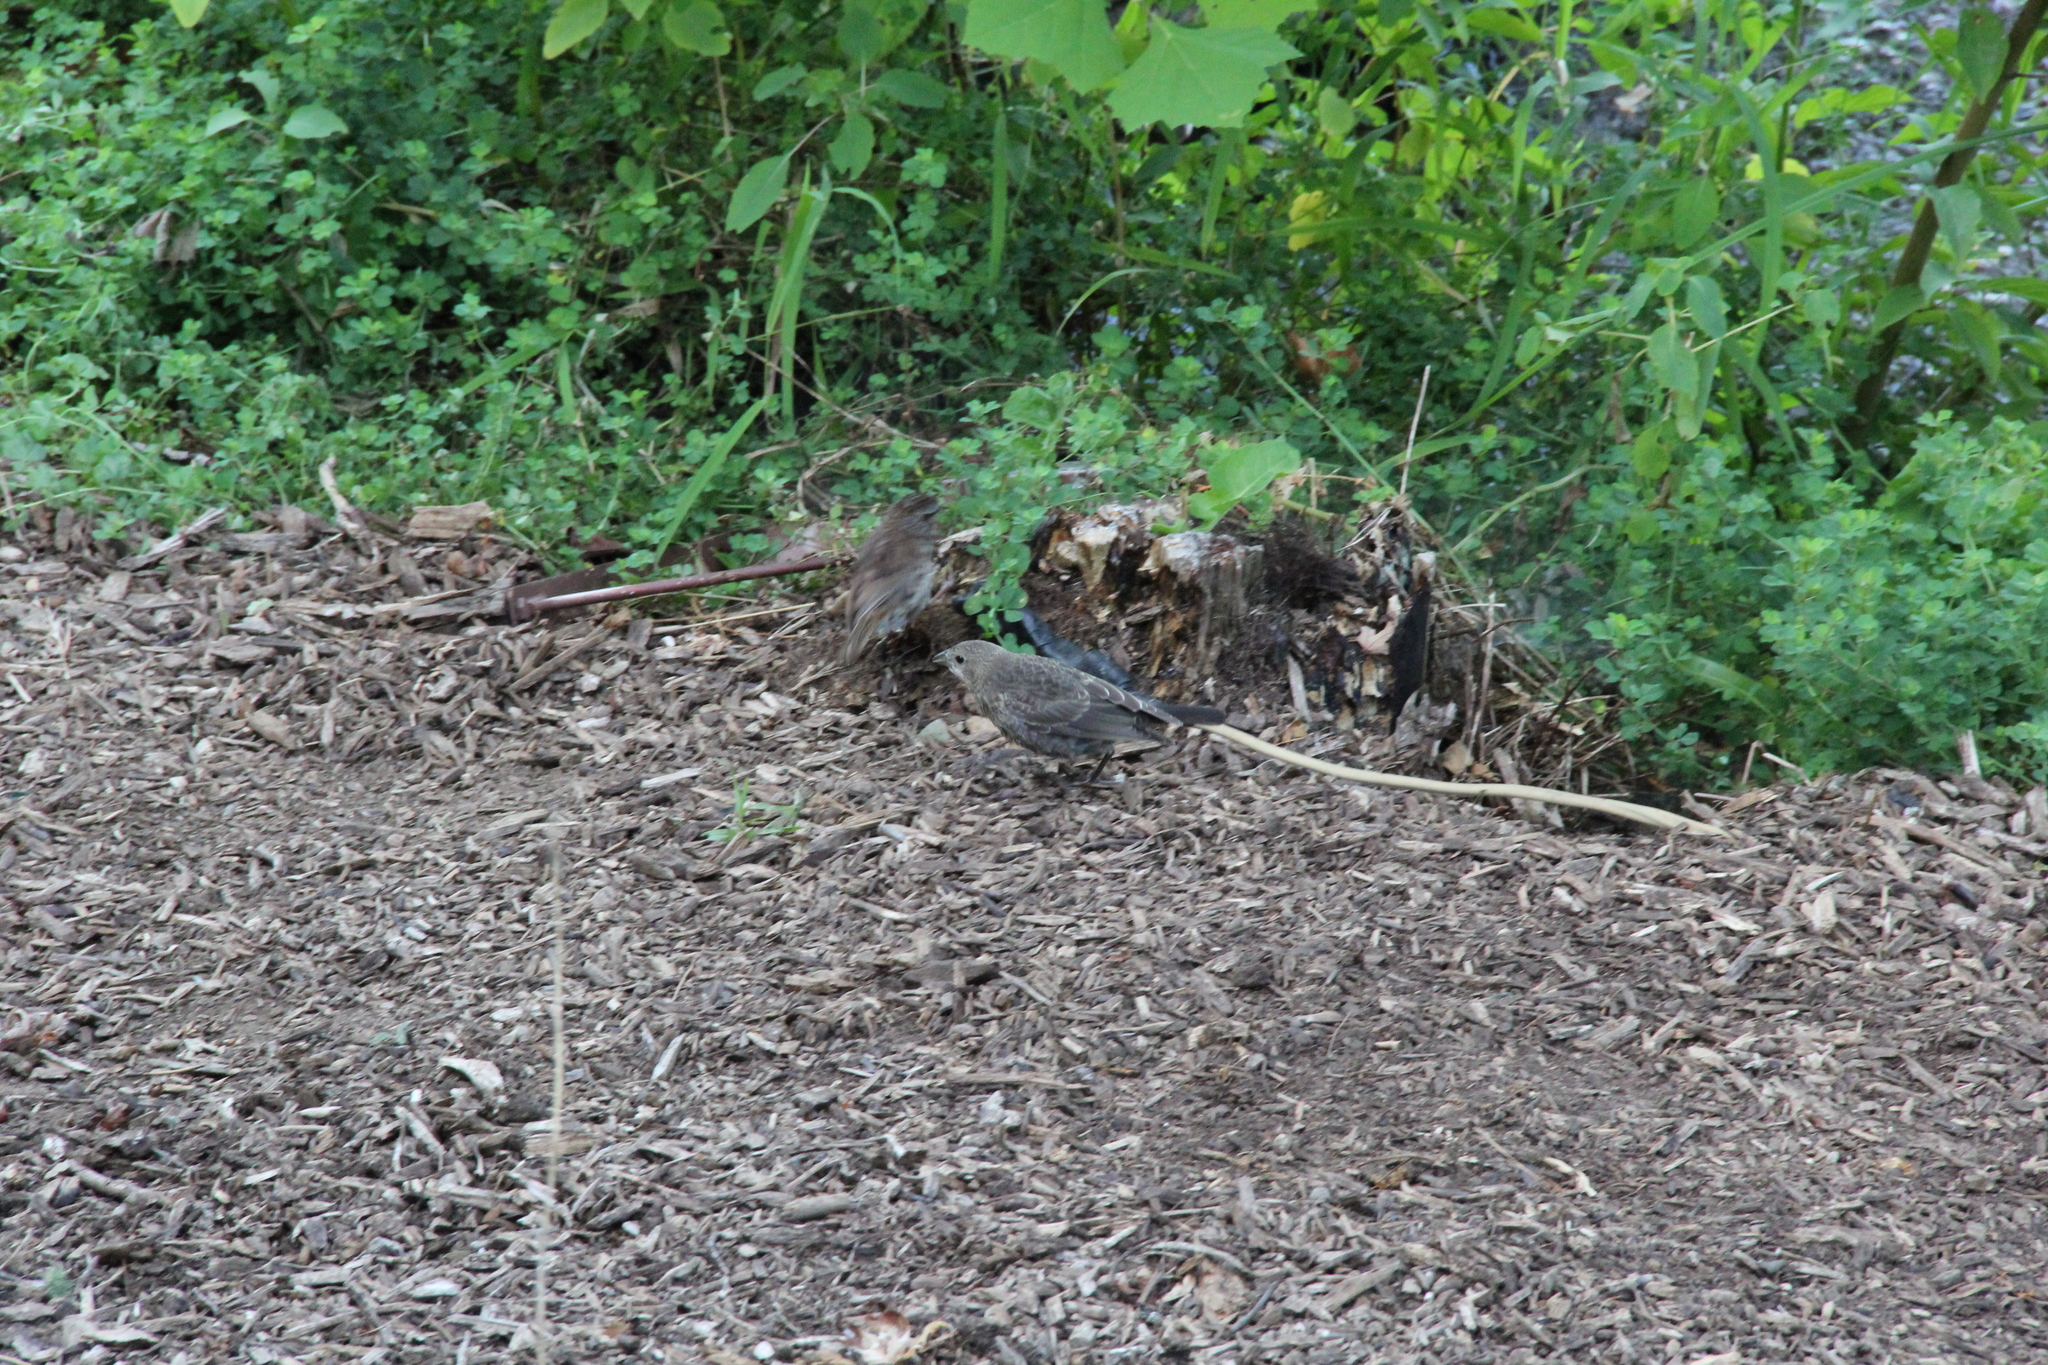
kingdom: Animalia
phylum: Chordata
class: Aves
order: Passeriformes
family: Icteridae
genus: Molothrus
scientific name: Molothrus ater
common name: Brown-headed cowbird
